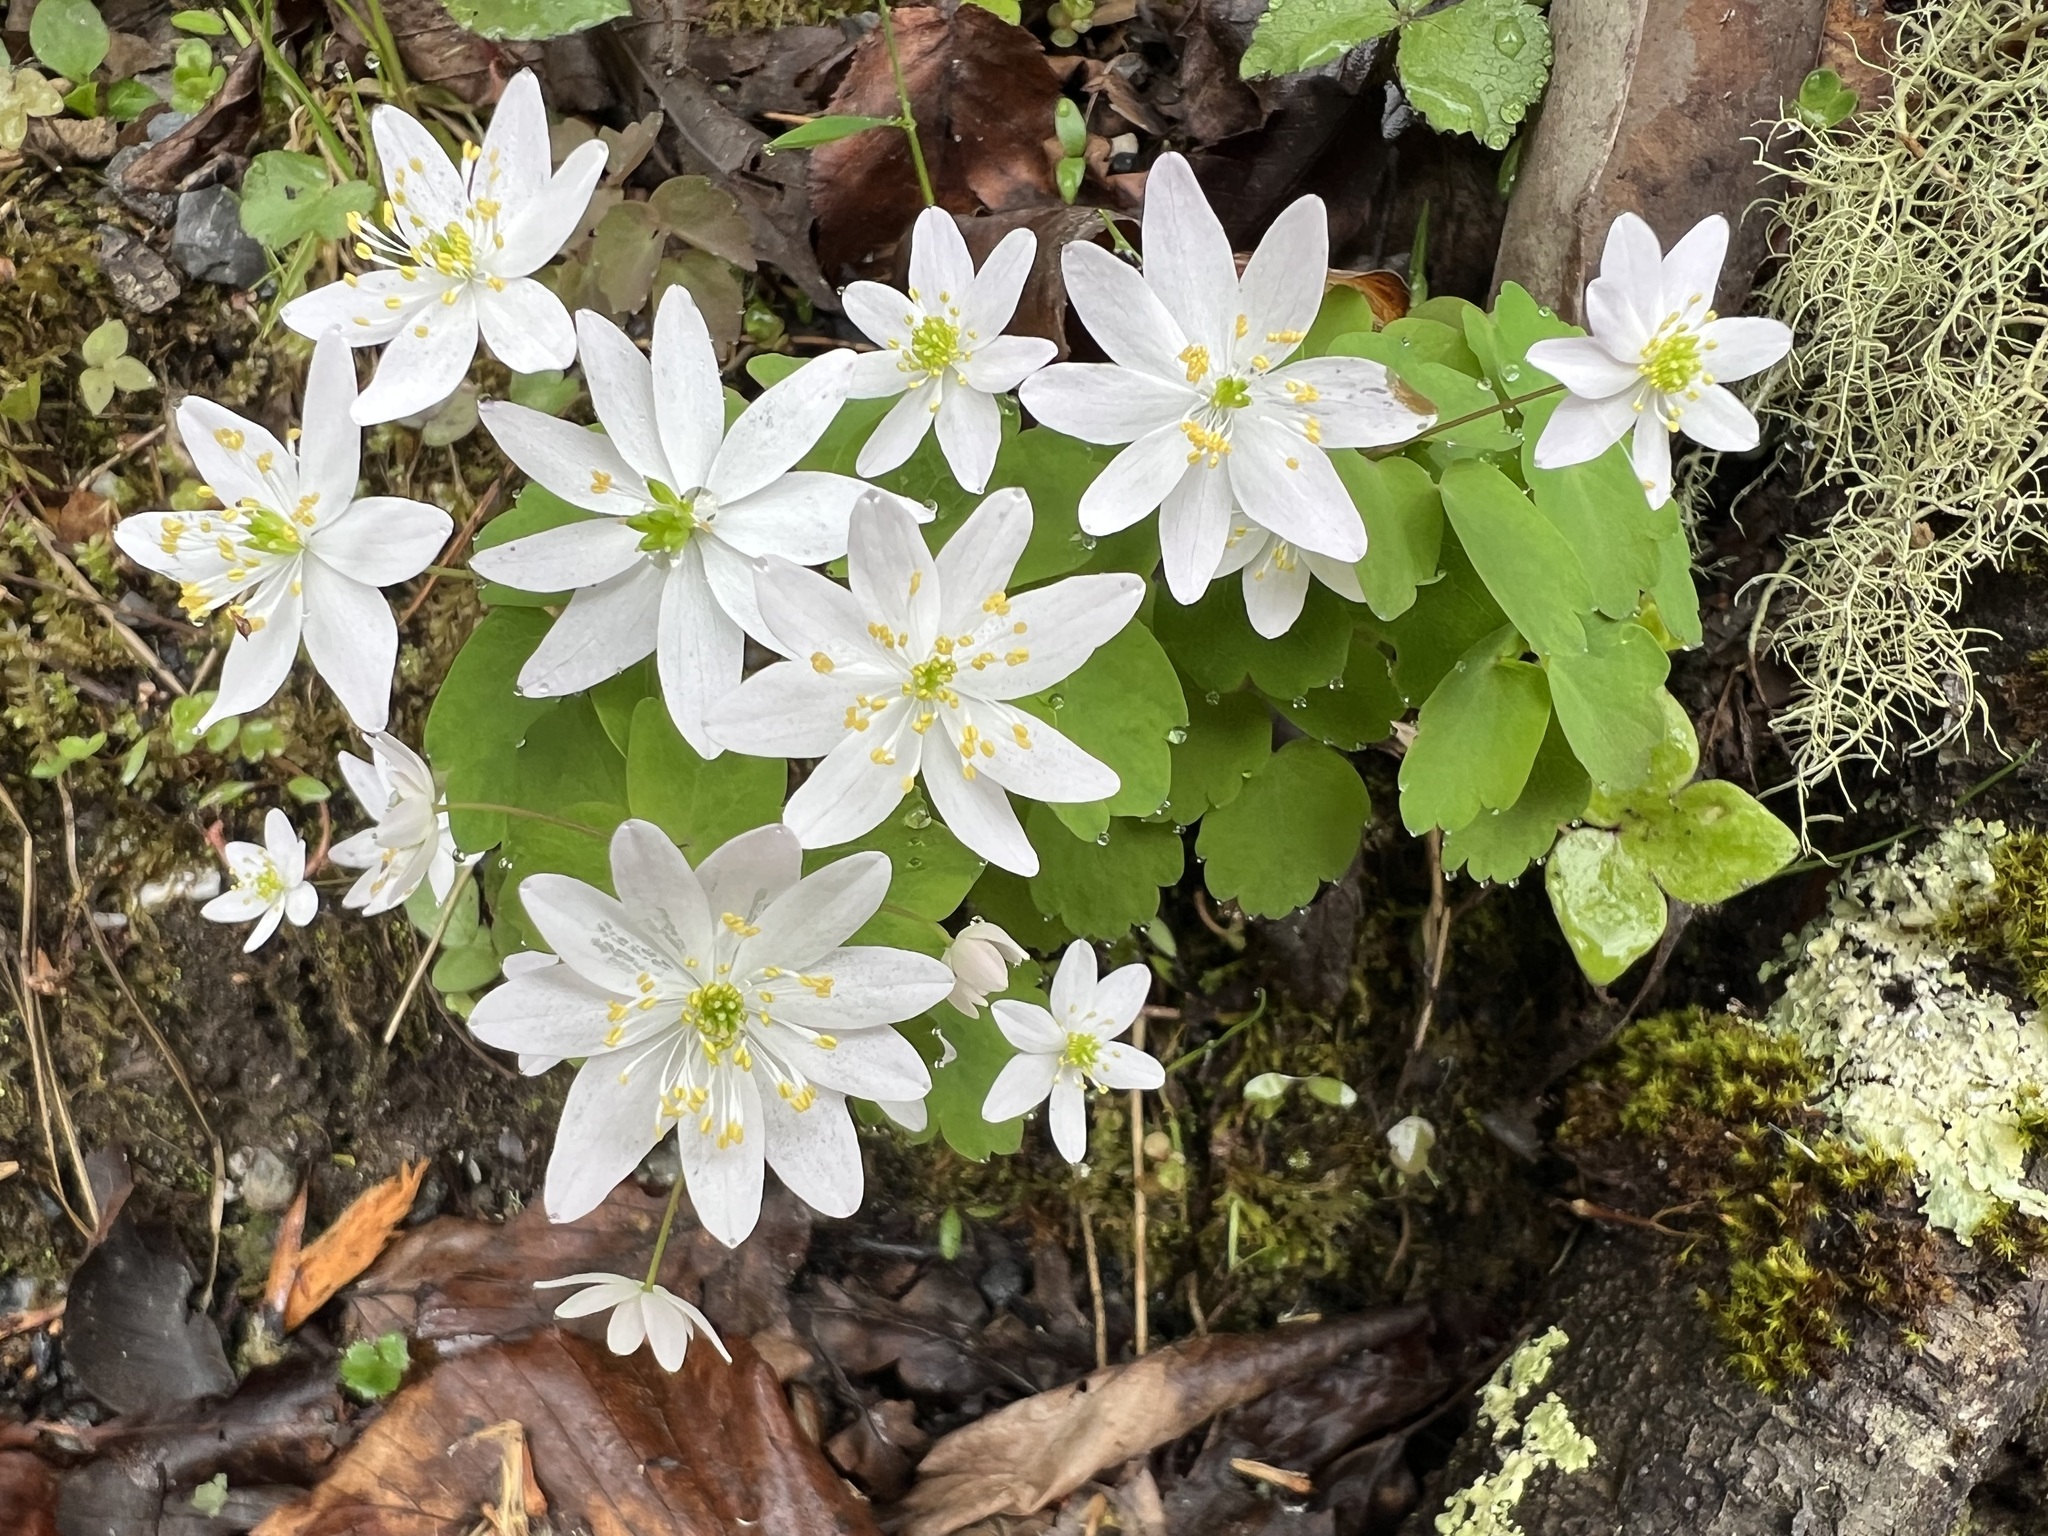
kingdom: Plantae
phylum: Tracheophyta
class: Magnoliopsida
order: Ranunculales
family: Ranunculaceae
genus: Thalictrum
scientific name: Thalictrum thalictroides
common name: Rue-anemone
